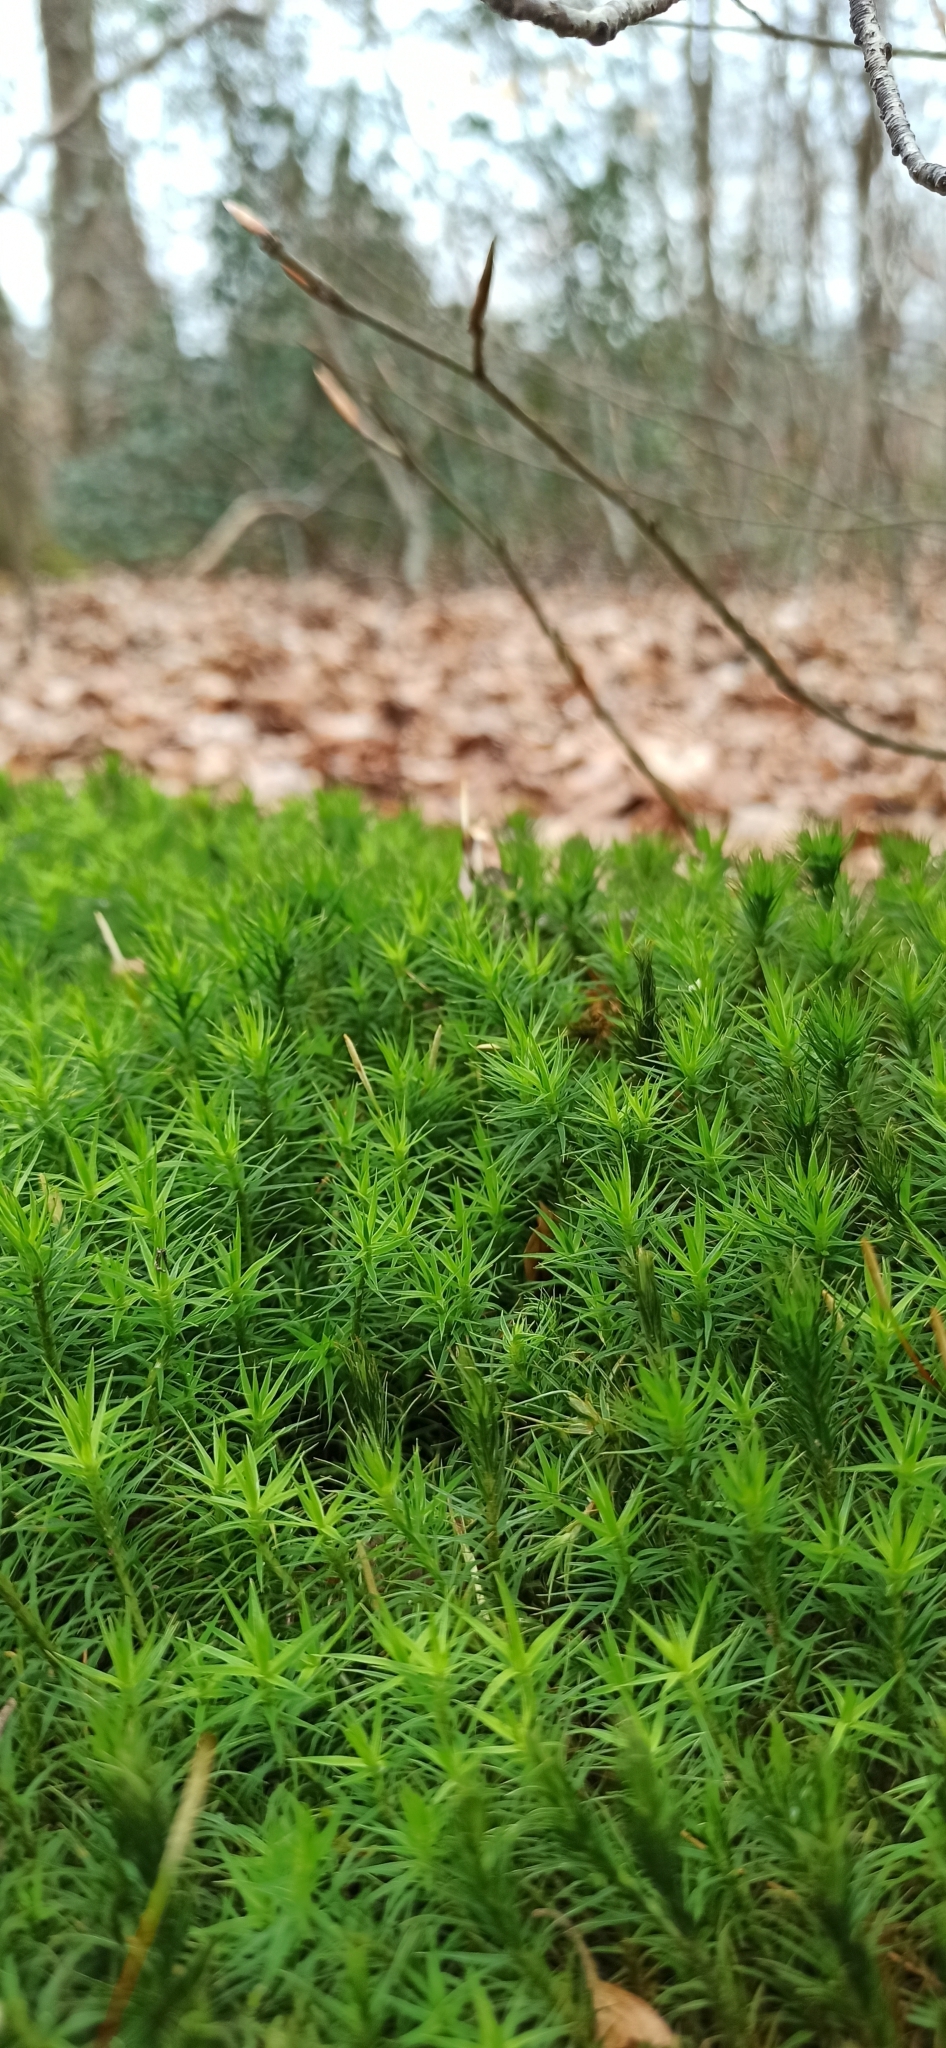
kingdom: Plantae
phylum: Bryophyta
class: Polytrichopsida
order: Polytrichales
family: Polytrichaceae
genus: Polytrichum
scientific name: Polytrichum formosum
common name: Bank haircap moss
